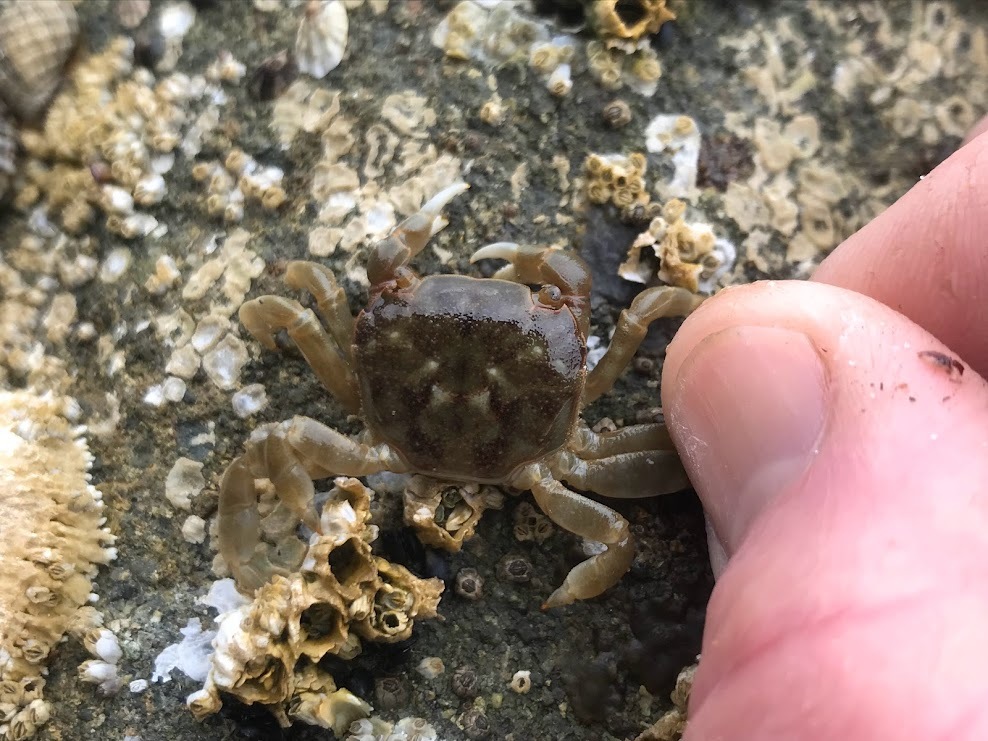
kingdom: Animalia
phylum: Arthropoda
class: Malacostraca
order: Decapoda
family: Varunidae
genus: Hemigrapsus
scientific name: Hemigrapsus nudus
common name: Purple shore crab
